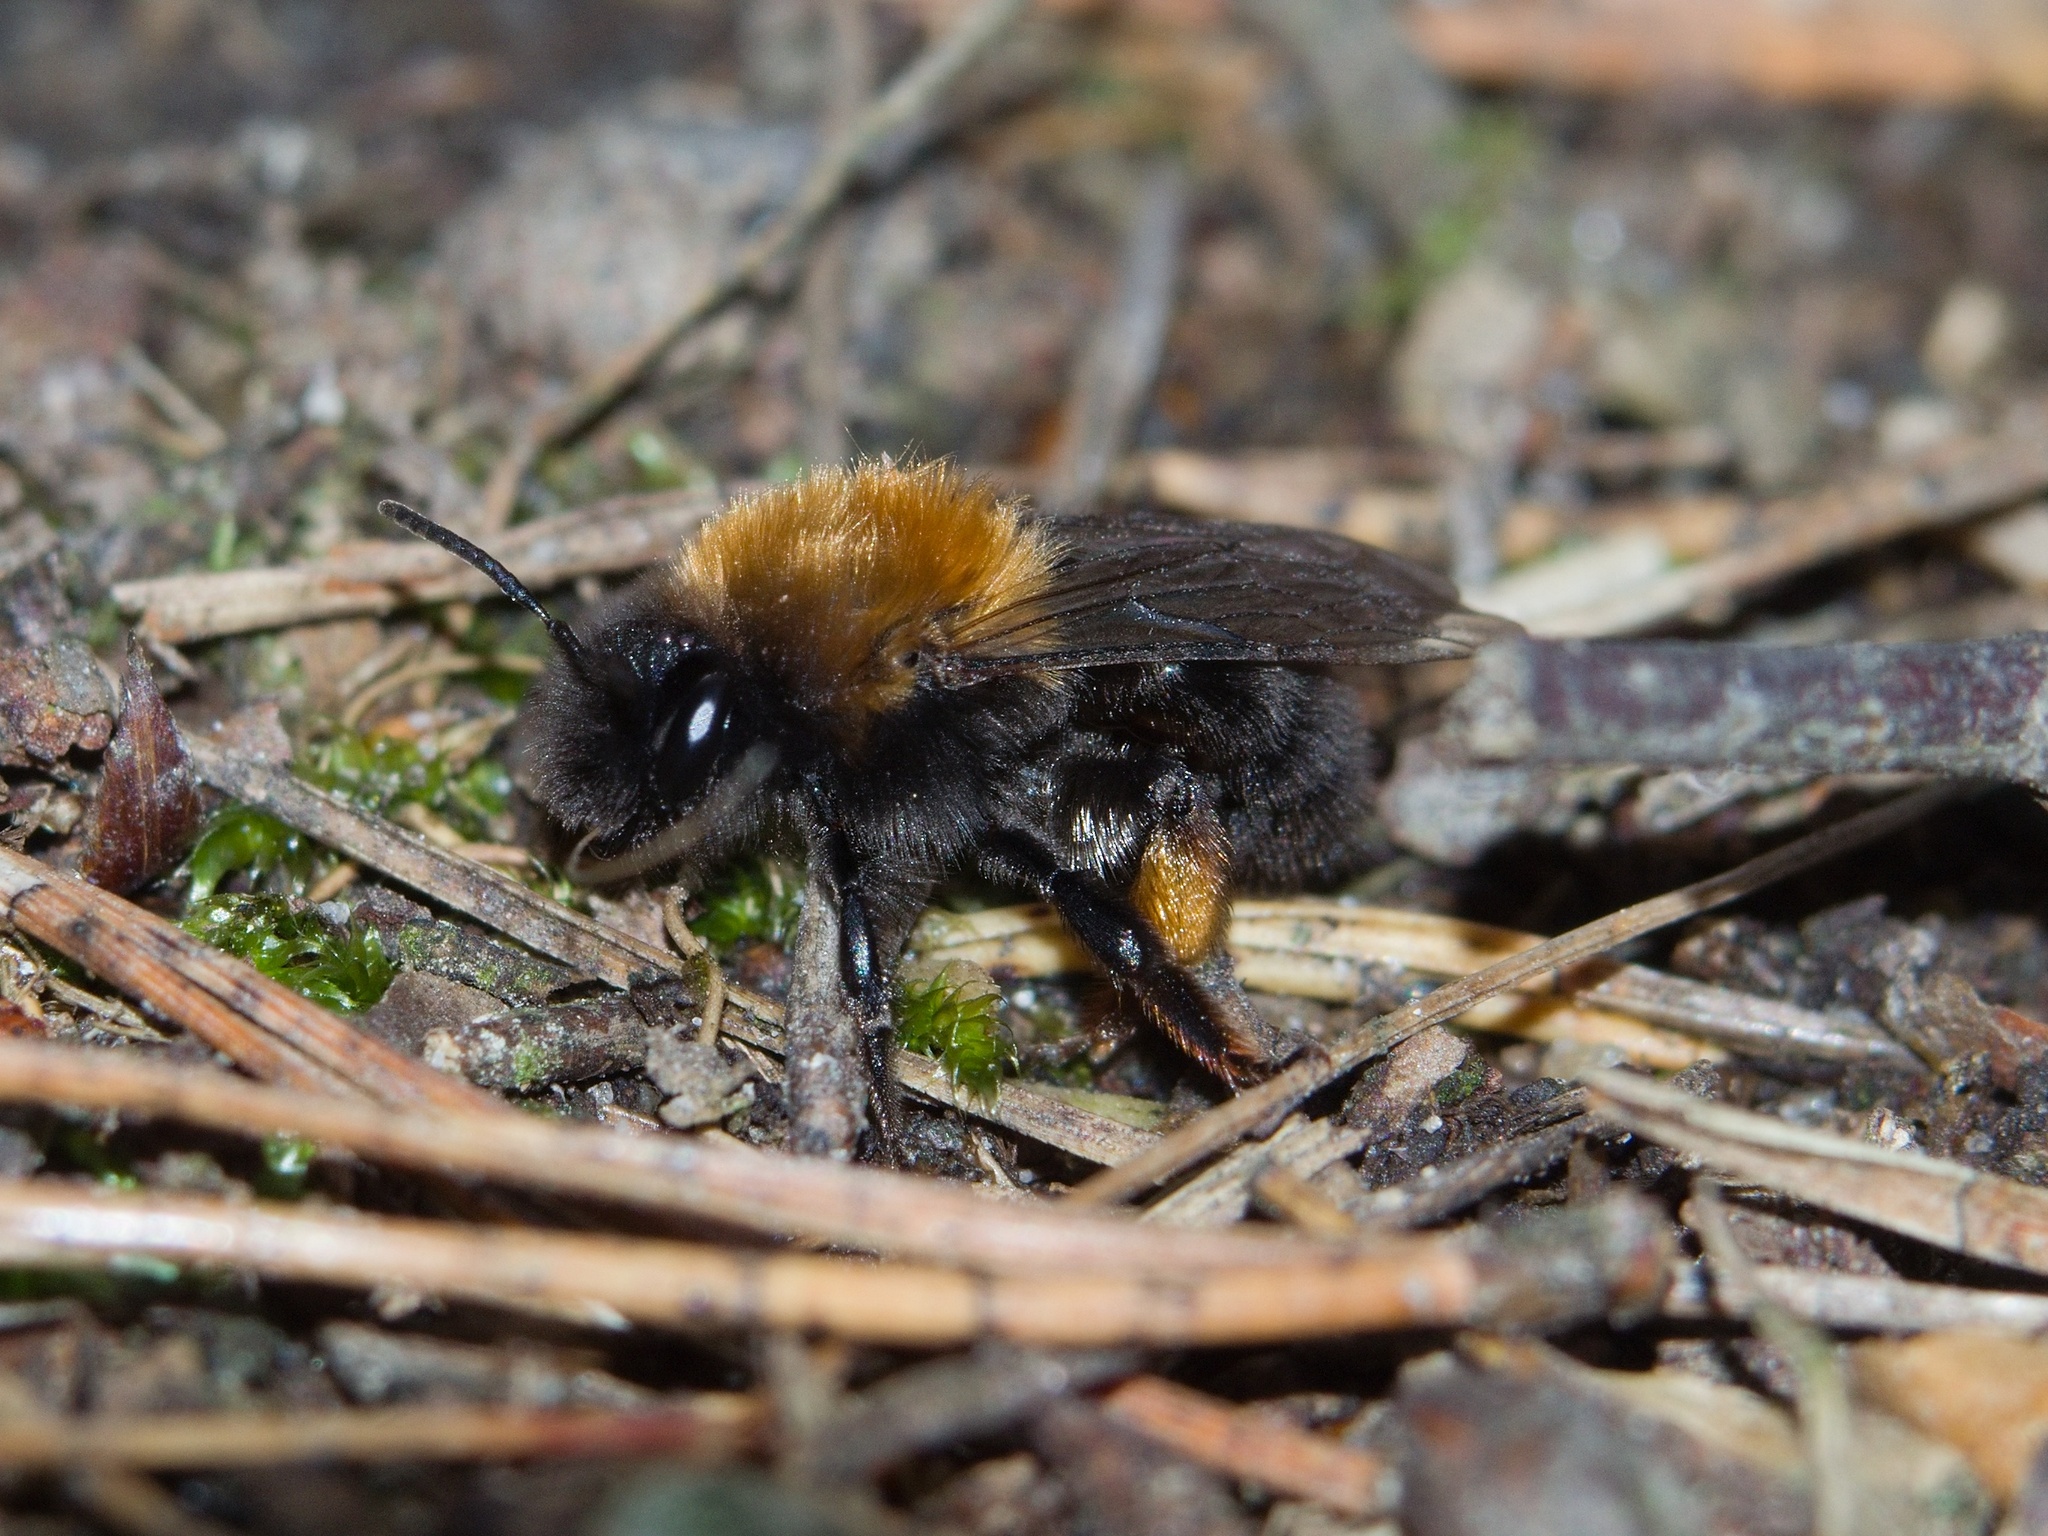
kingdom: Animalia
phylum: Arthropoda
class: Insecta
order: Hymenoptera
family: Andrenidae
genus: Andrena
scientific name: Andrena clarkella
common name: Clarke's mining bee
